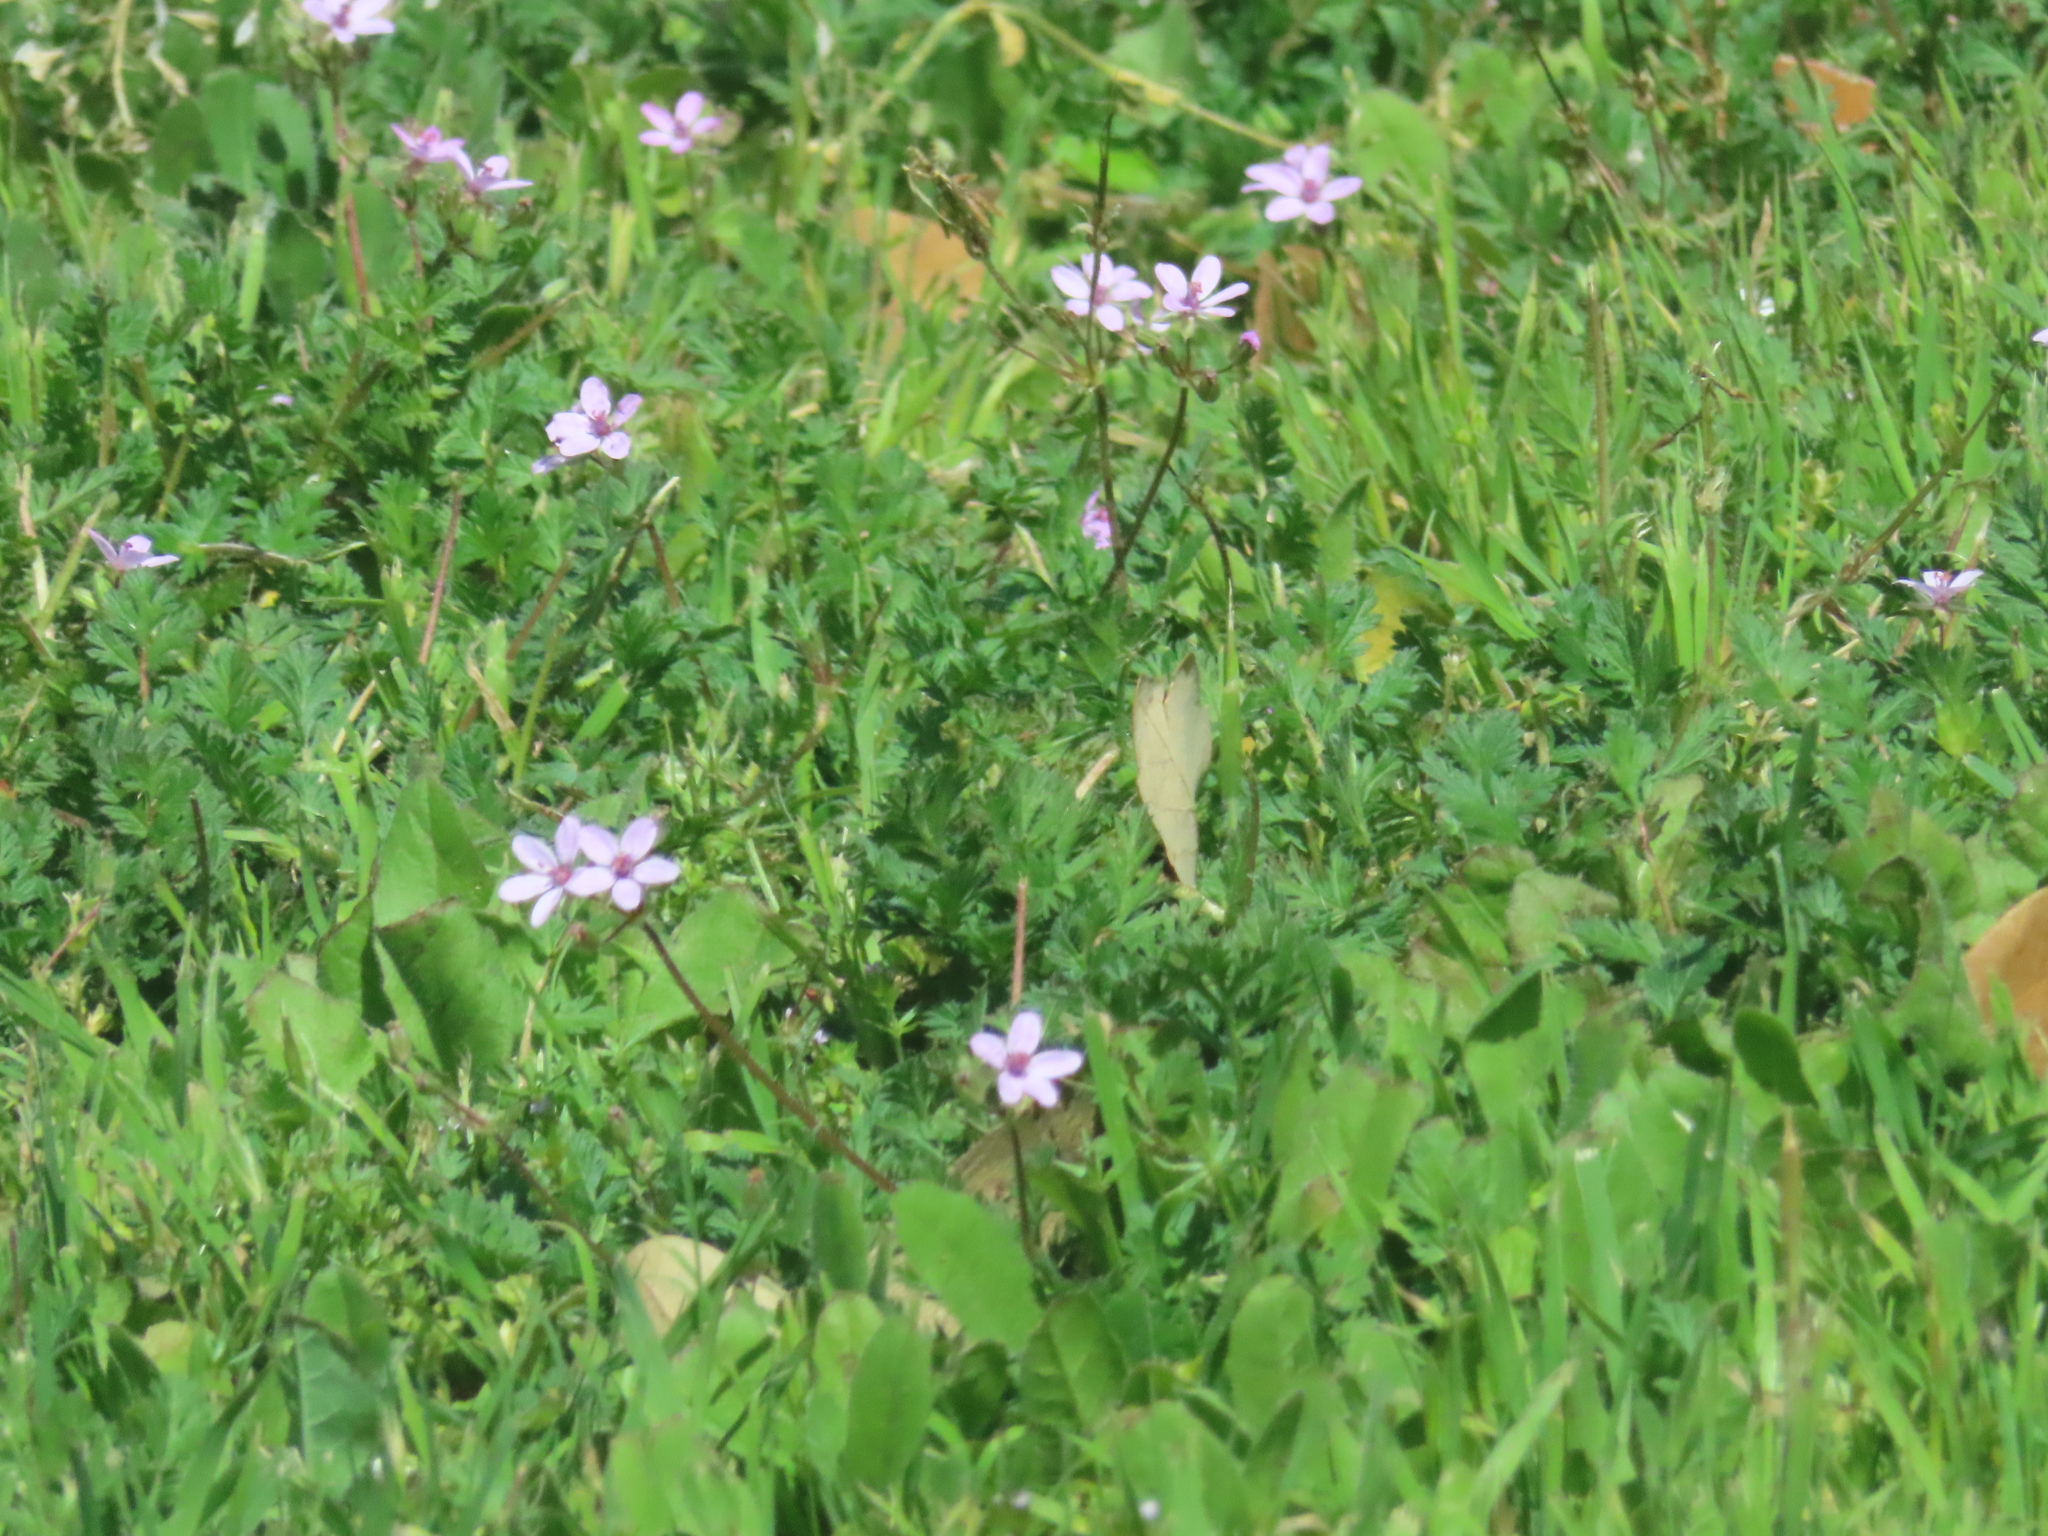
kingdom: Plantae
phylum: Tracheophyta
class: Magnoliopsida
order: Geraniales
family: Geraniaceae
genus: Erodium
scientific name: Erodium cicutarium
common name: Common stork's-bill
